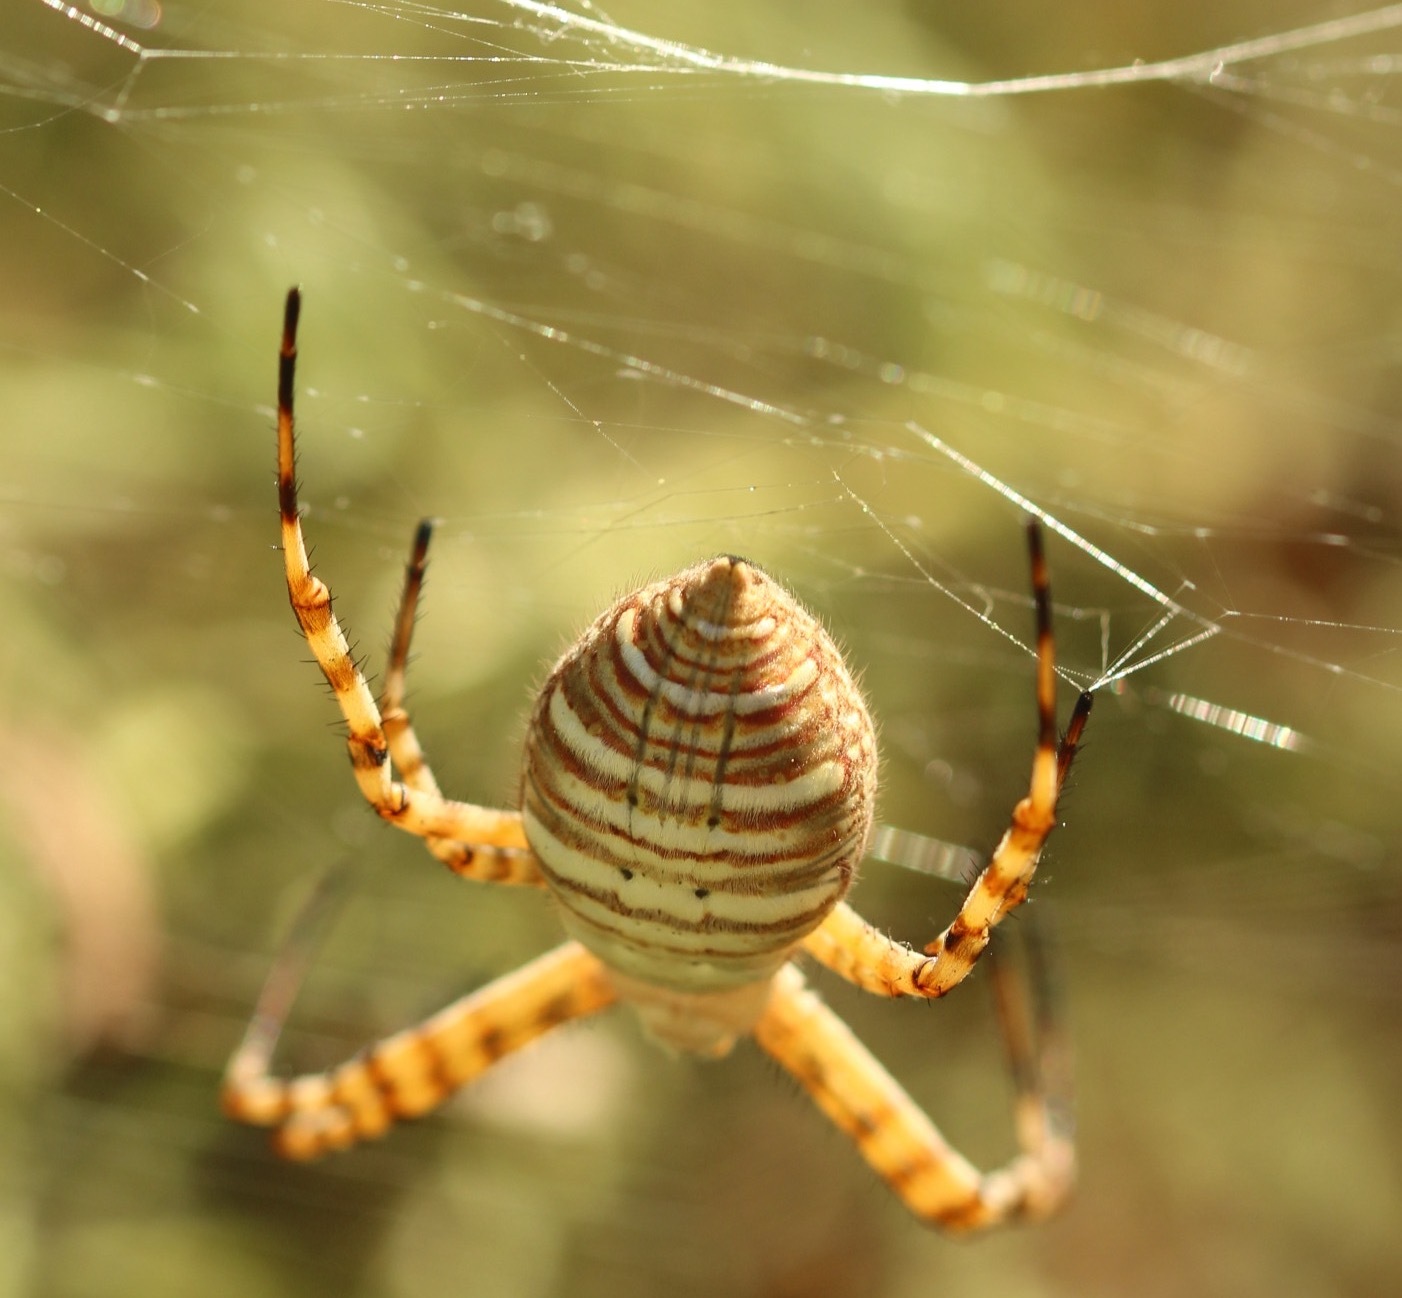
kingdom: Animalia
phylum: Arthropoda
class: Arachnida
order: Araneae
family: Araneidae
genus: Argiope
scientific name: Argiope trifasciata
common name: Banded garden spider
